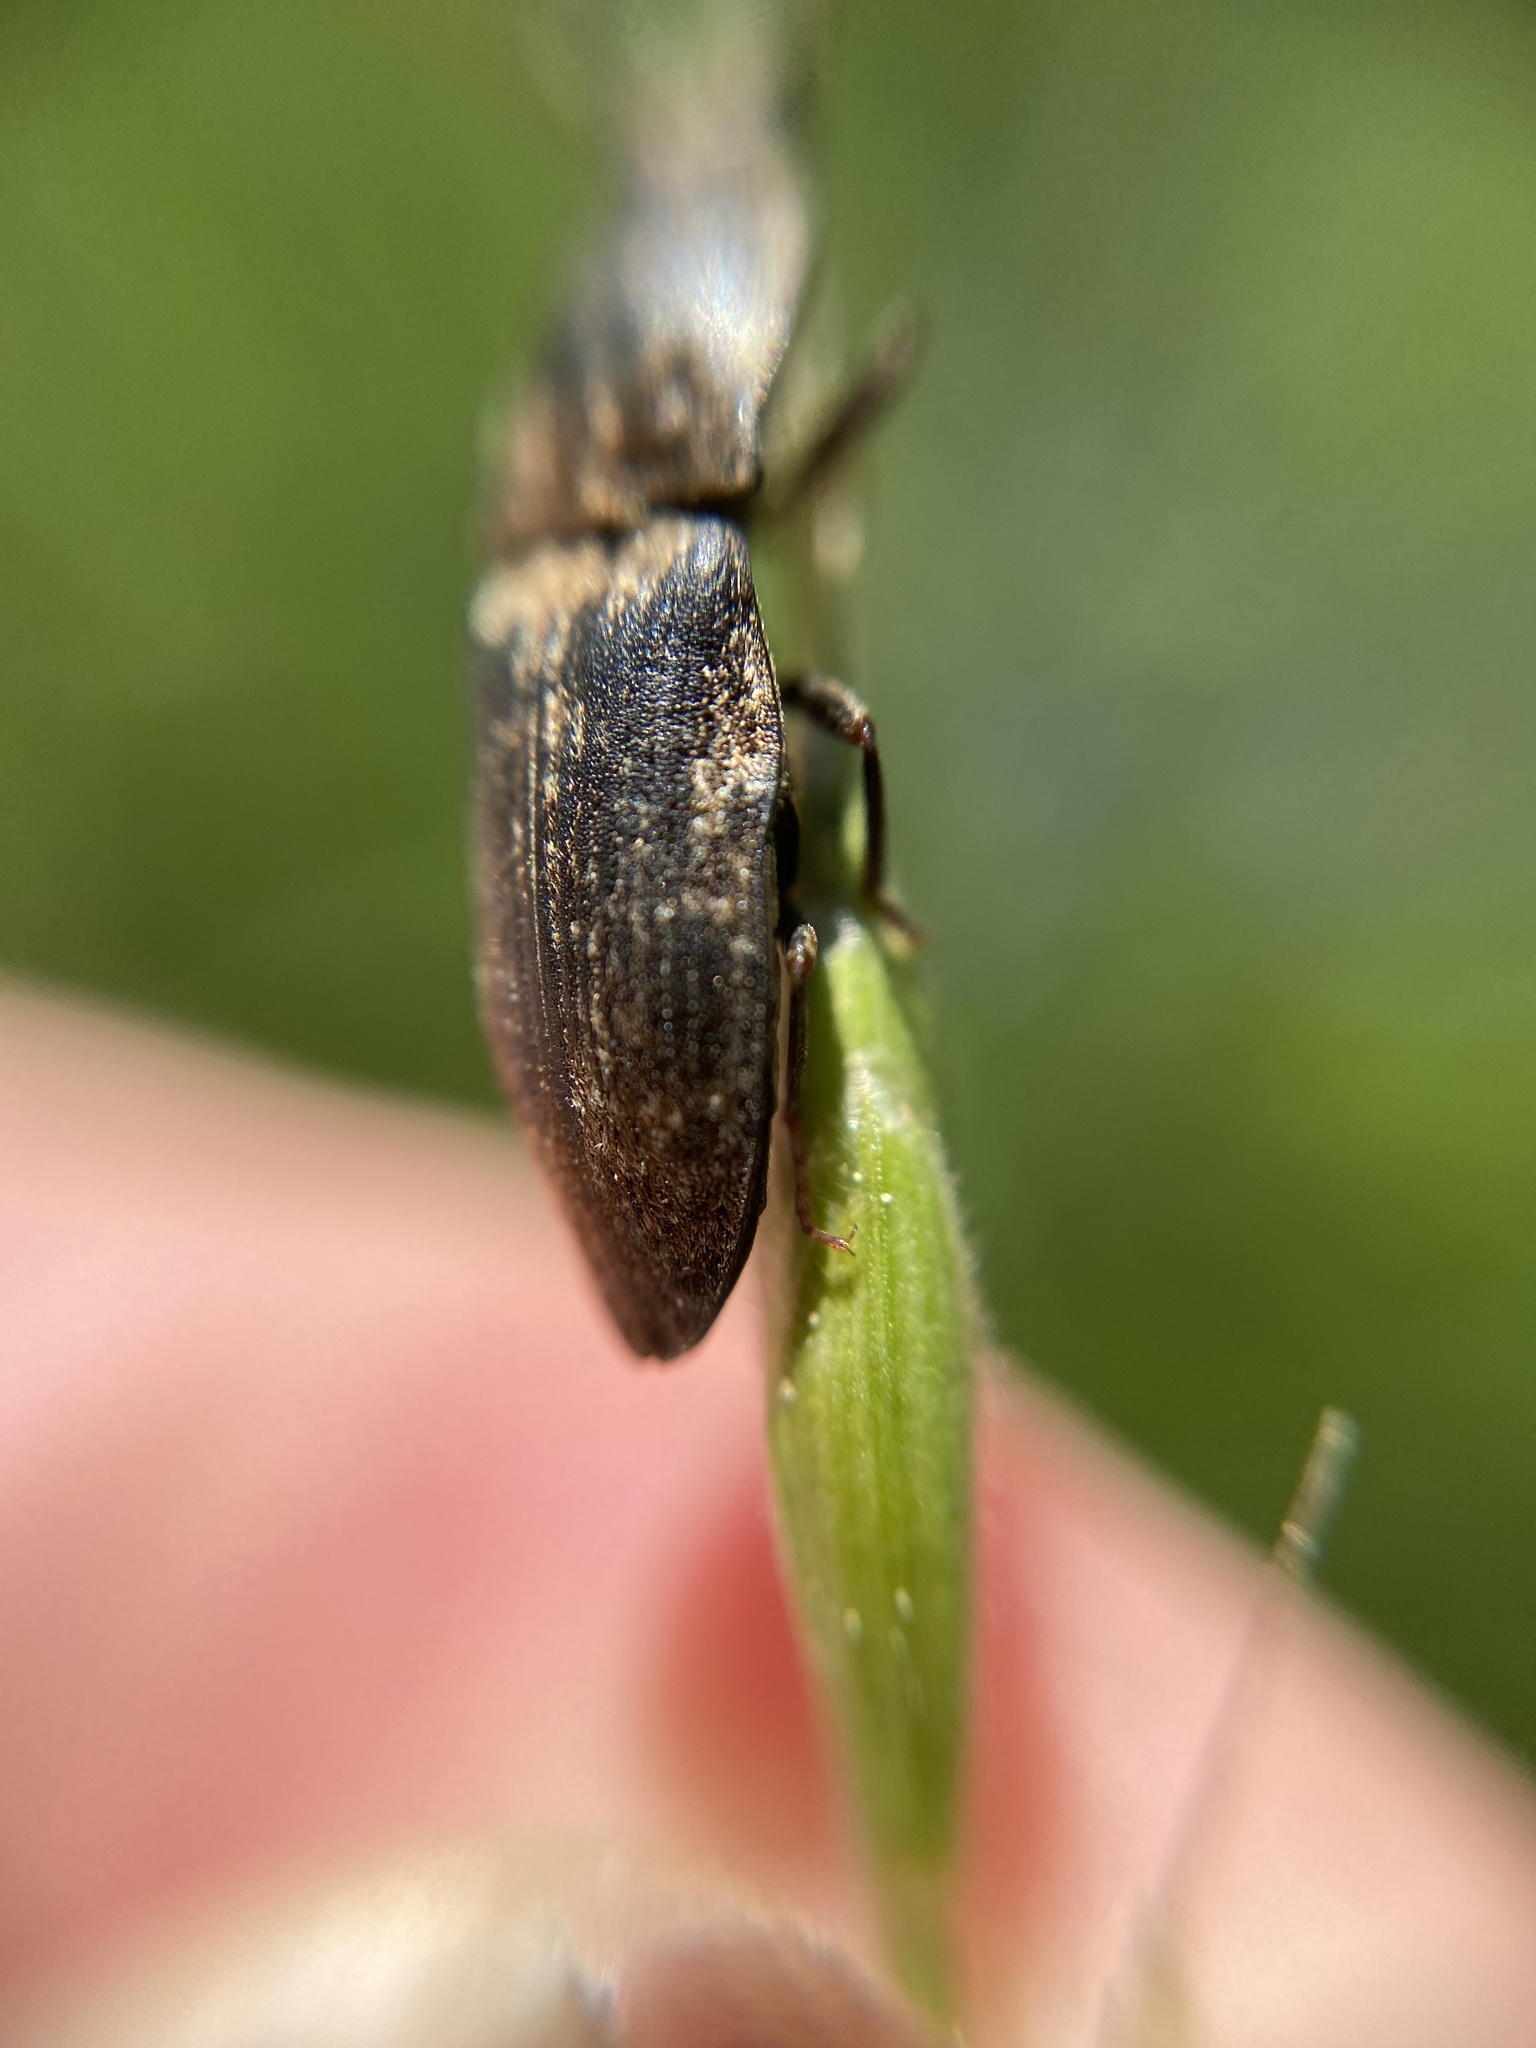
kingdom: Animalia
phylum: Arthropoda
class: Insecta
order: Coleoptera
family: Elateridae
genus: Agrypnus
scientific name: Agrypnus murinus
